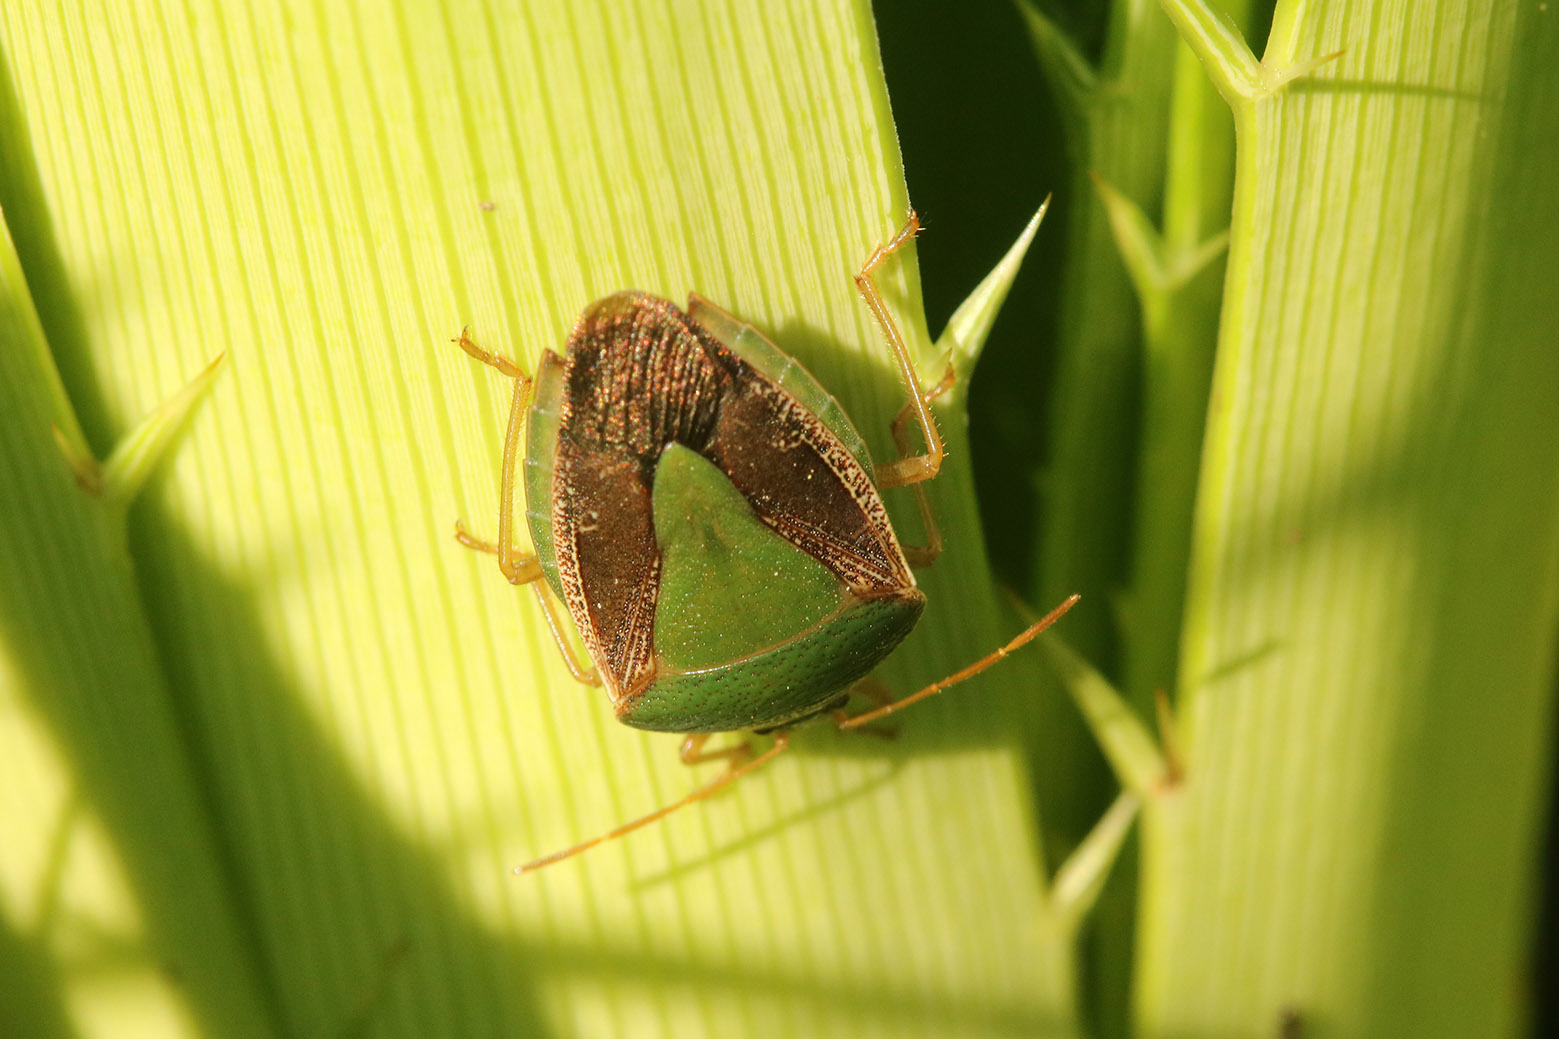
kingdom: Animalia
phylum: Arthropoda
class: Insecta
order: Hemiptera
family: Pentatomidae
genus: Edessa
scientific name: Edessa meditabunda
